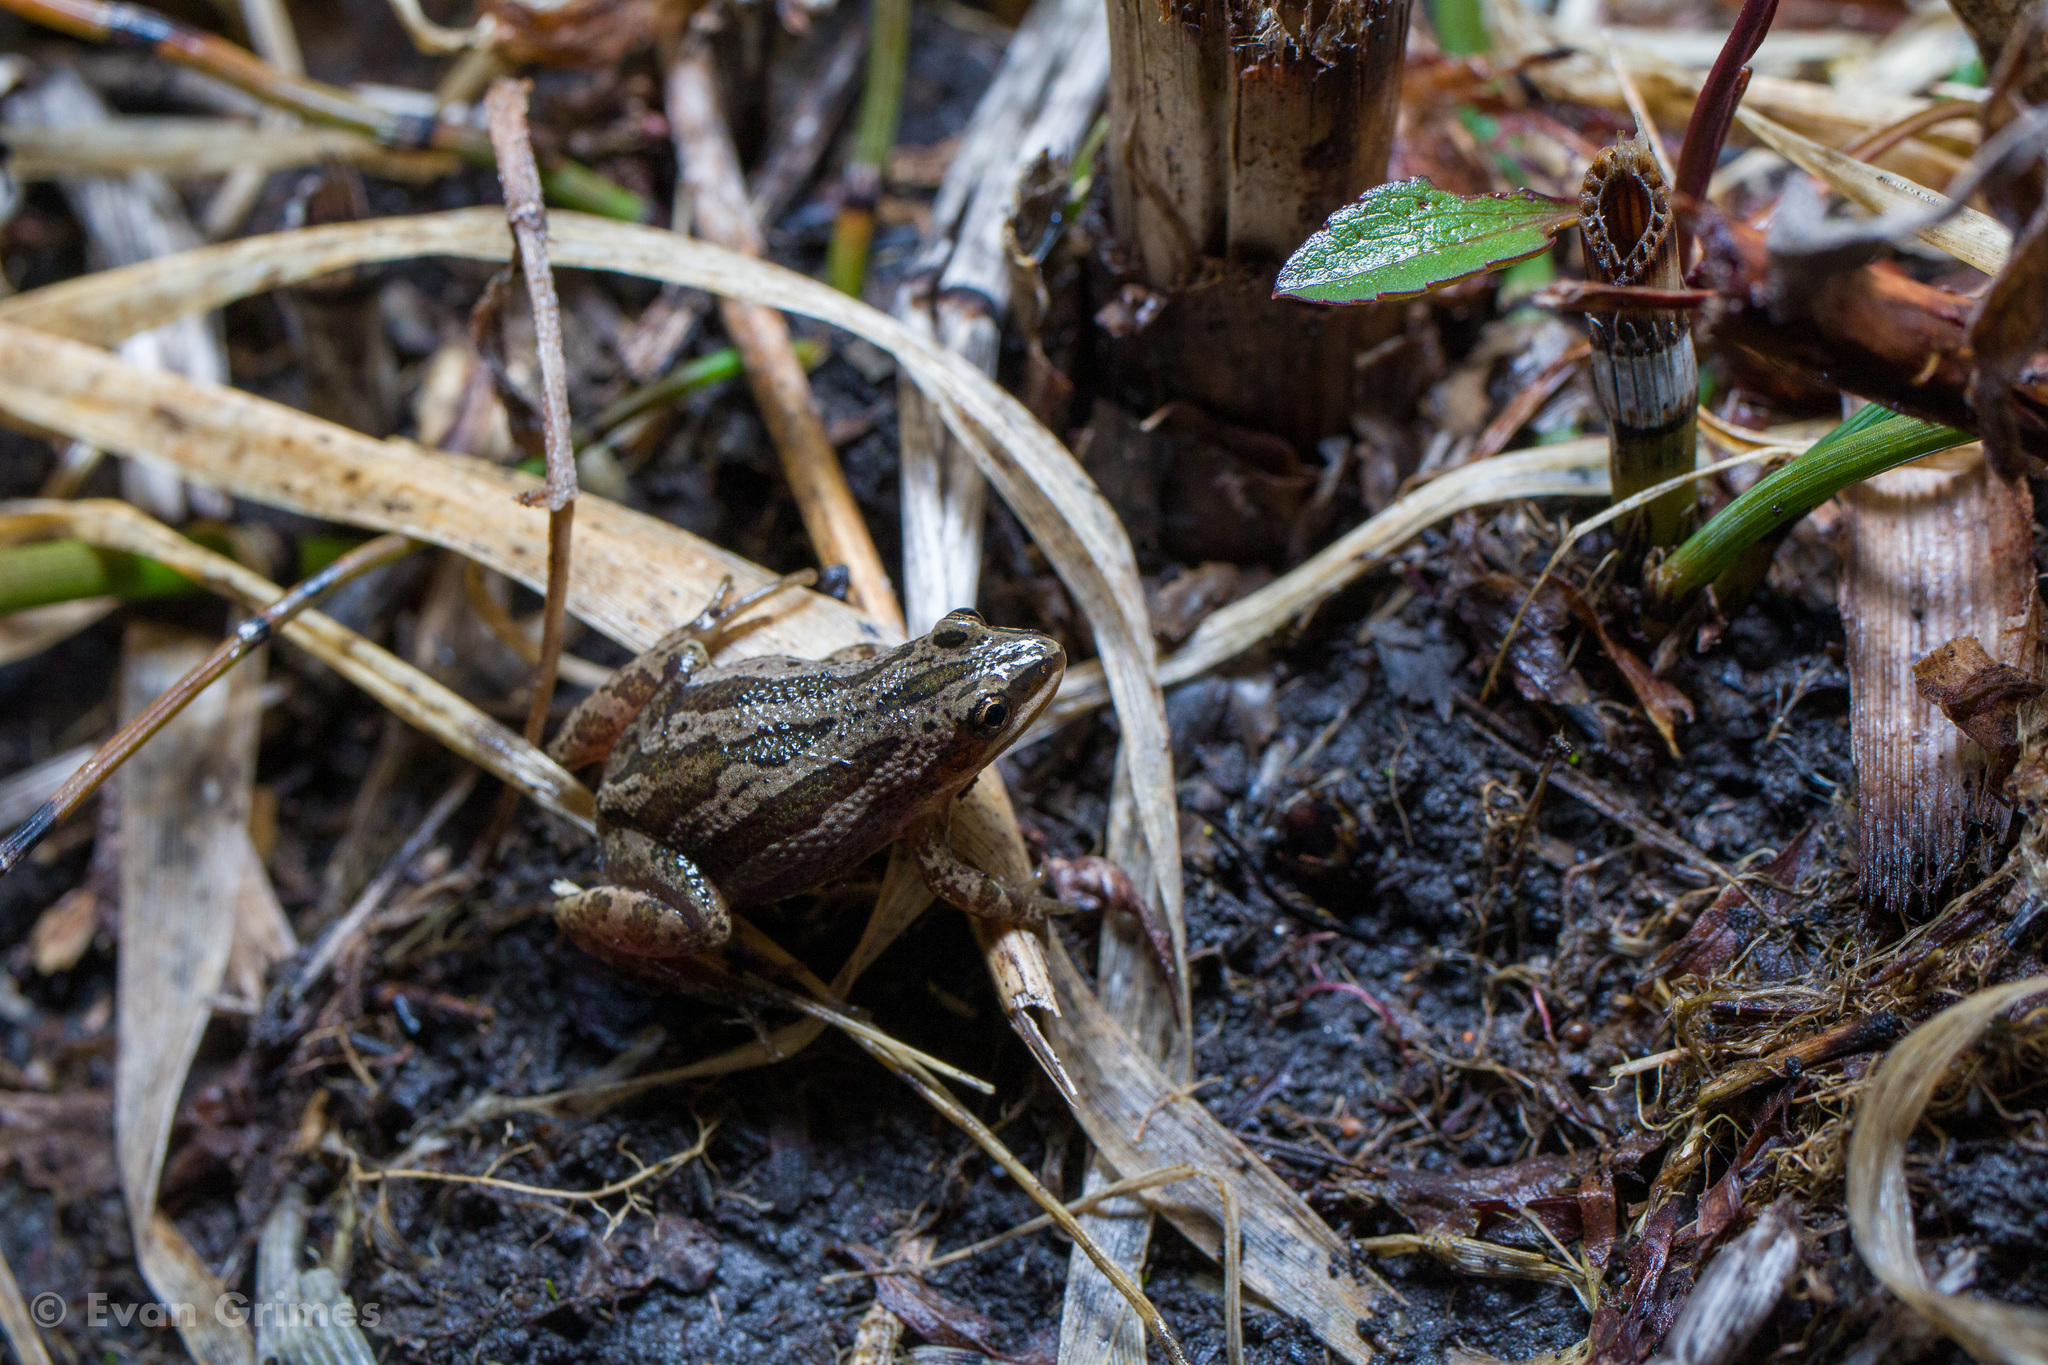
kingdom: Animalia
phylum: Chordata
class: Amphibia
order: Anura
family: Hylidae
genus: Pseudacris
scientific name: Pseudacris maculata
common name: Boreal chorus frog
